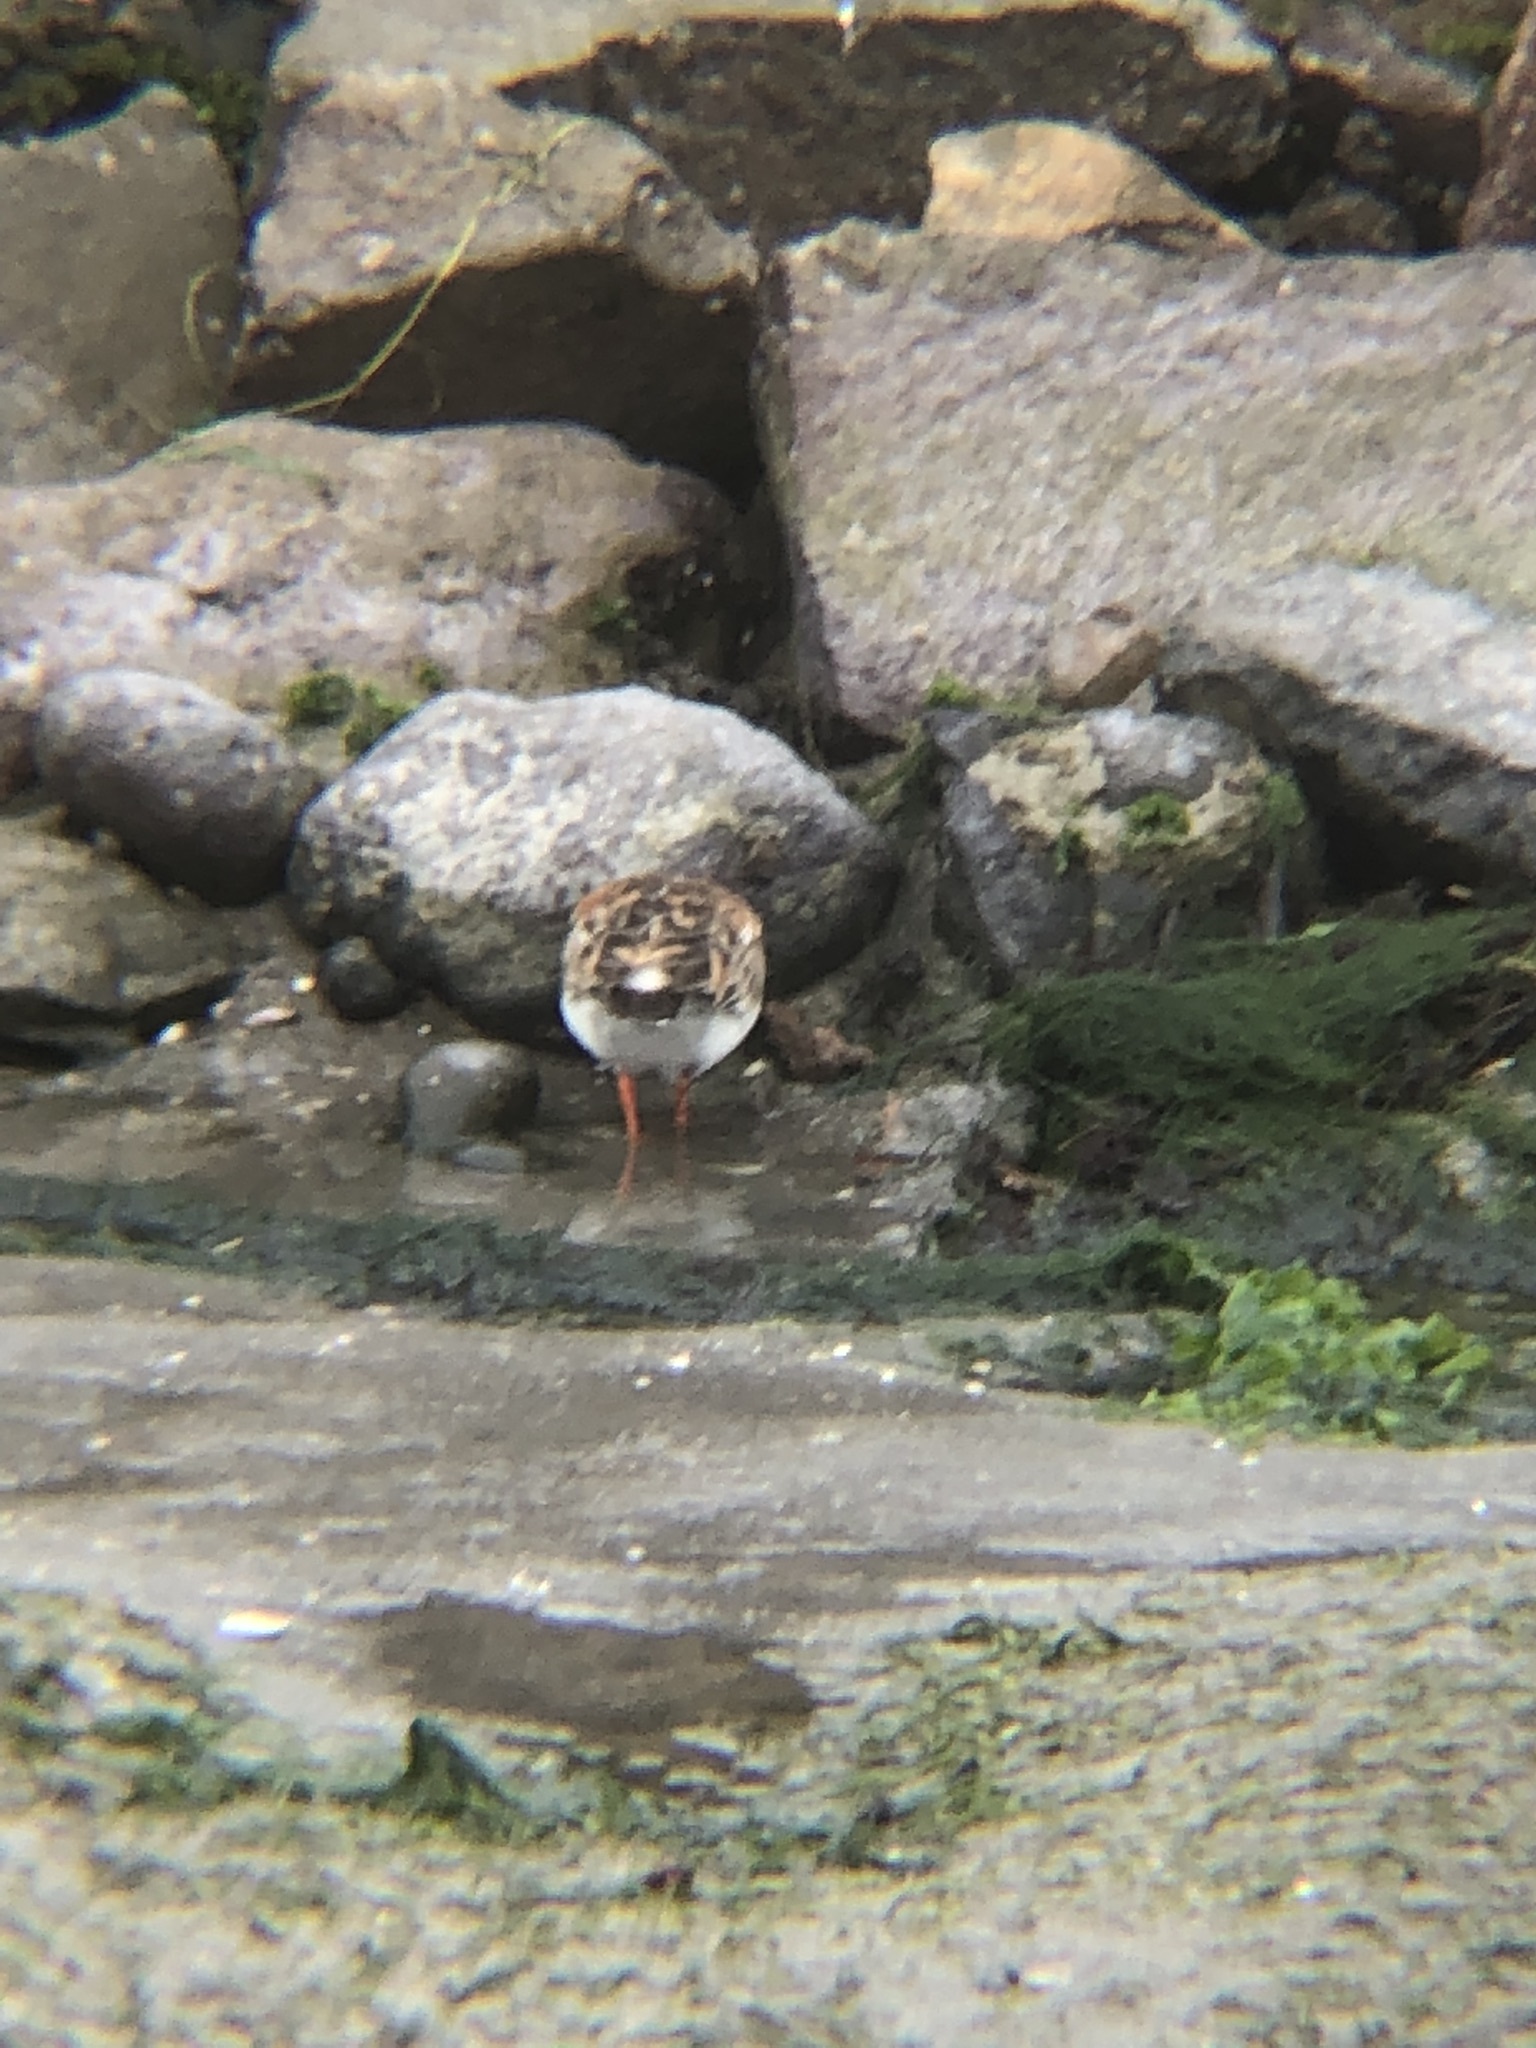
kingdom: Animalia
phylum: Chordata
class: Aves
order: Charadriiformes
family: Scolopacidae
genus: Arenaria
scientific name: Arenaria interpres
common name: Ruddy turnstone
